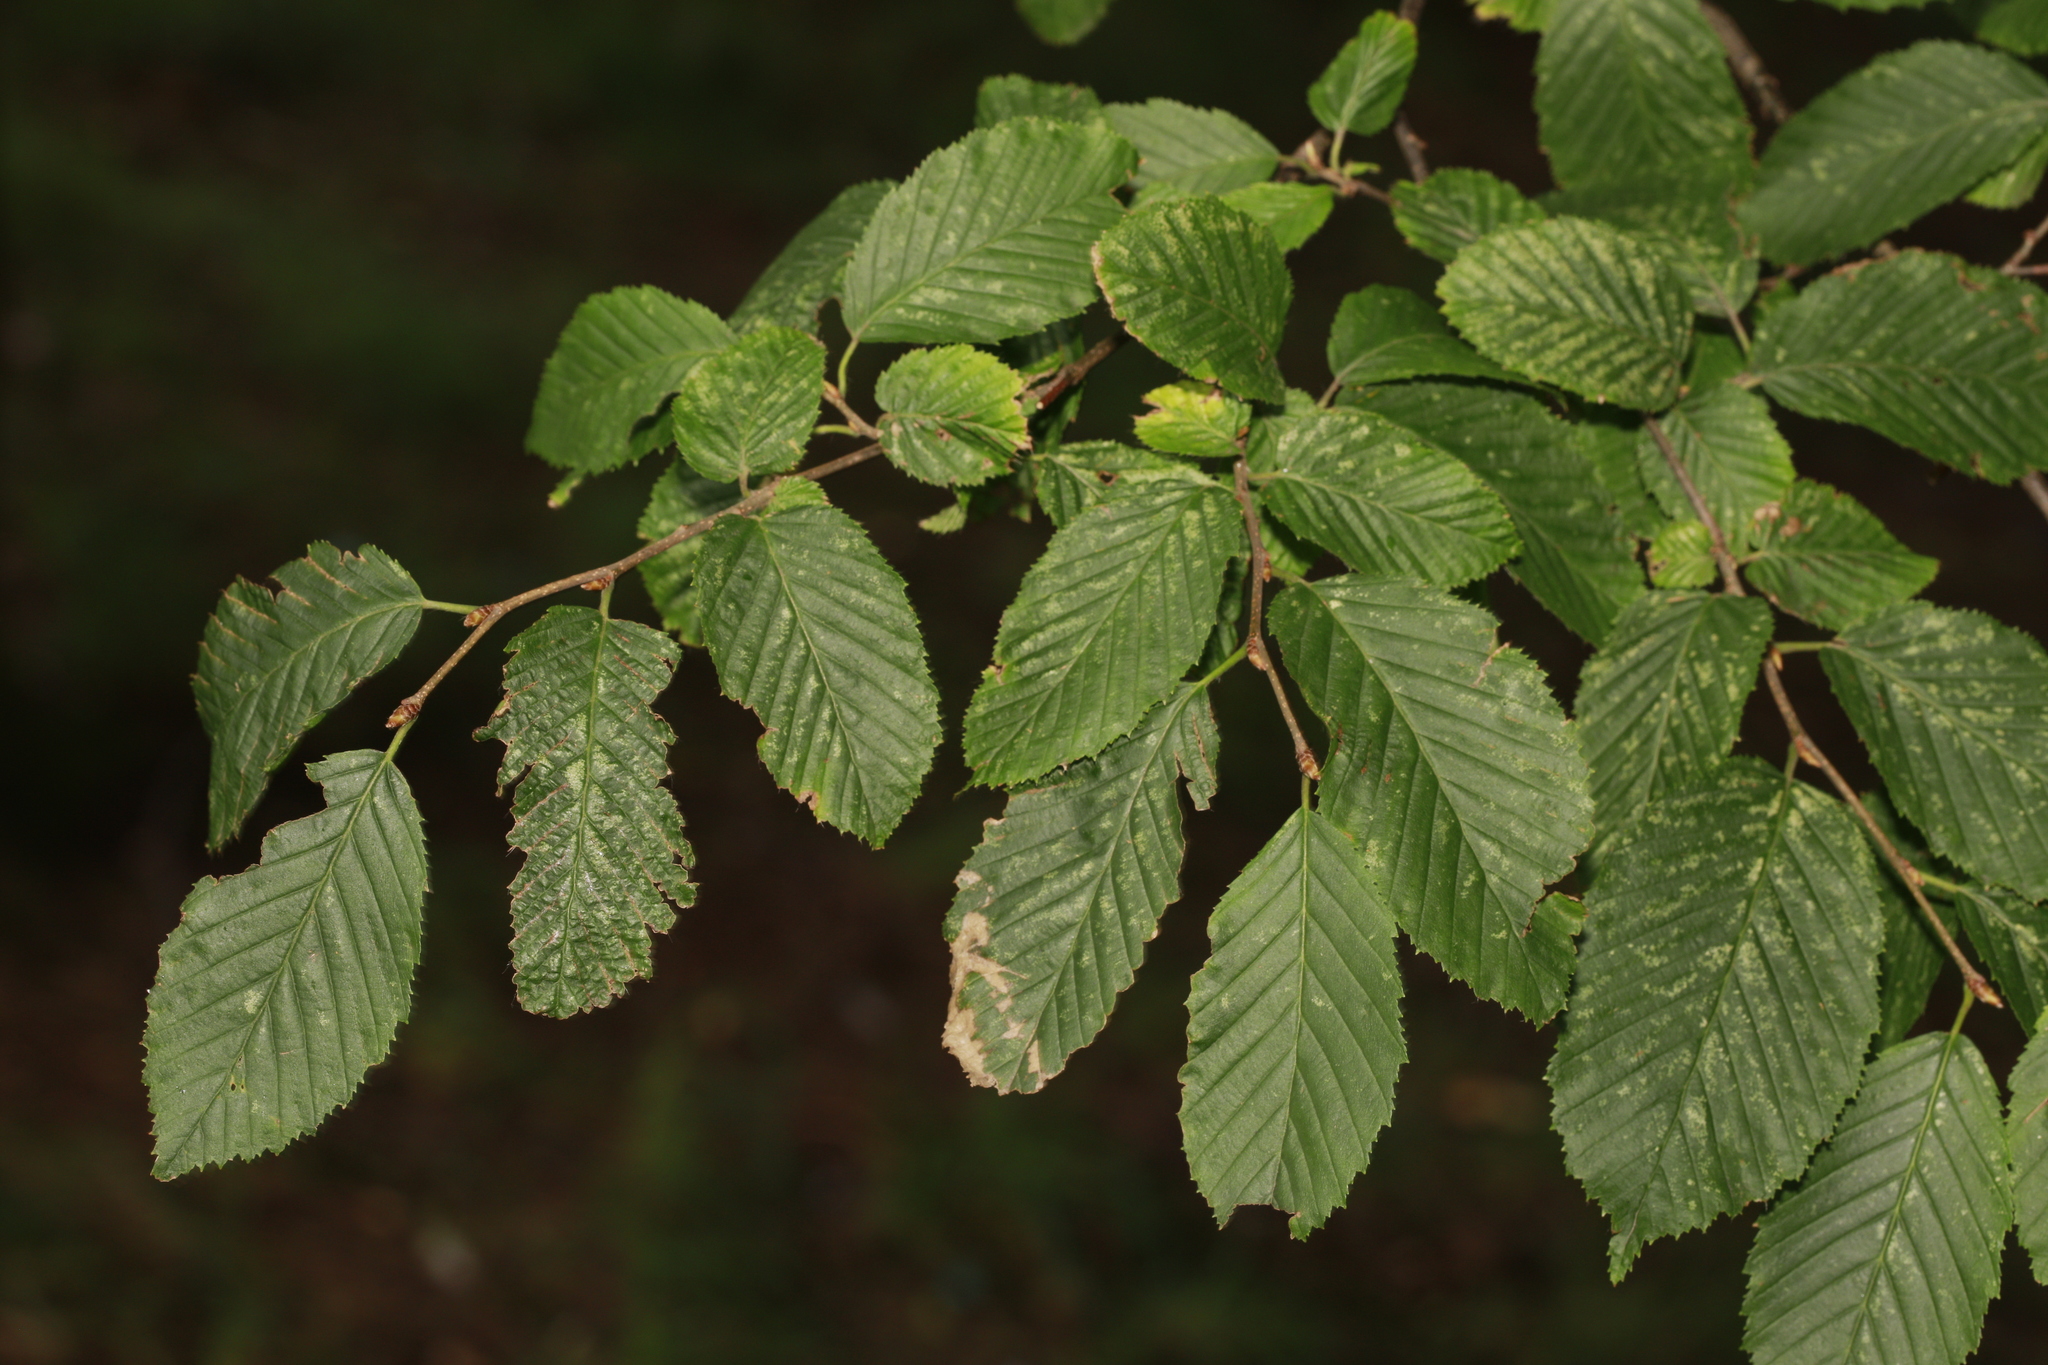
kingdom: Plantae
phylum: Tracheophyta
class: Magnoliopsida
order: Fagales
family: Betulaceae
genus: Carpinus
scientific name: Carpinus betulus
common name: Hornbeam
